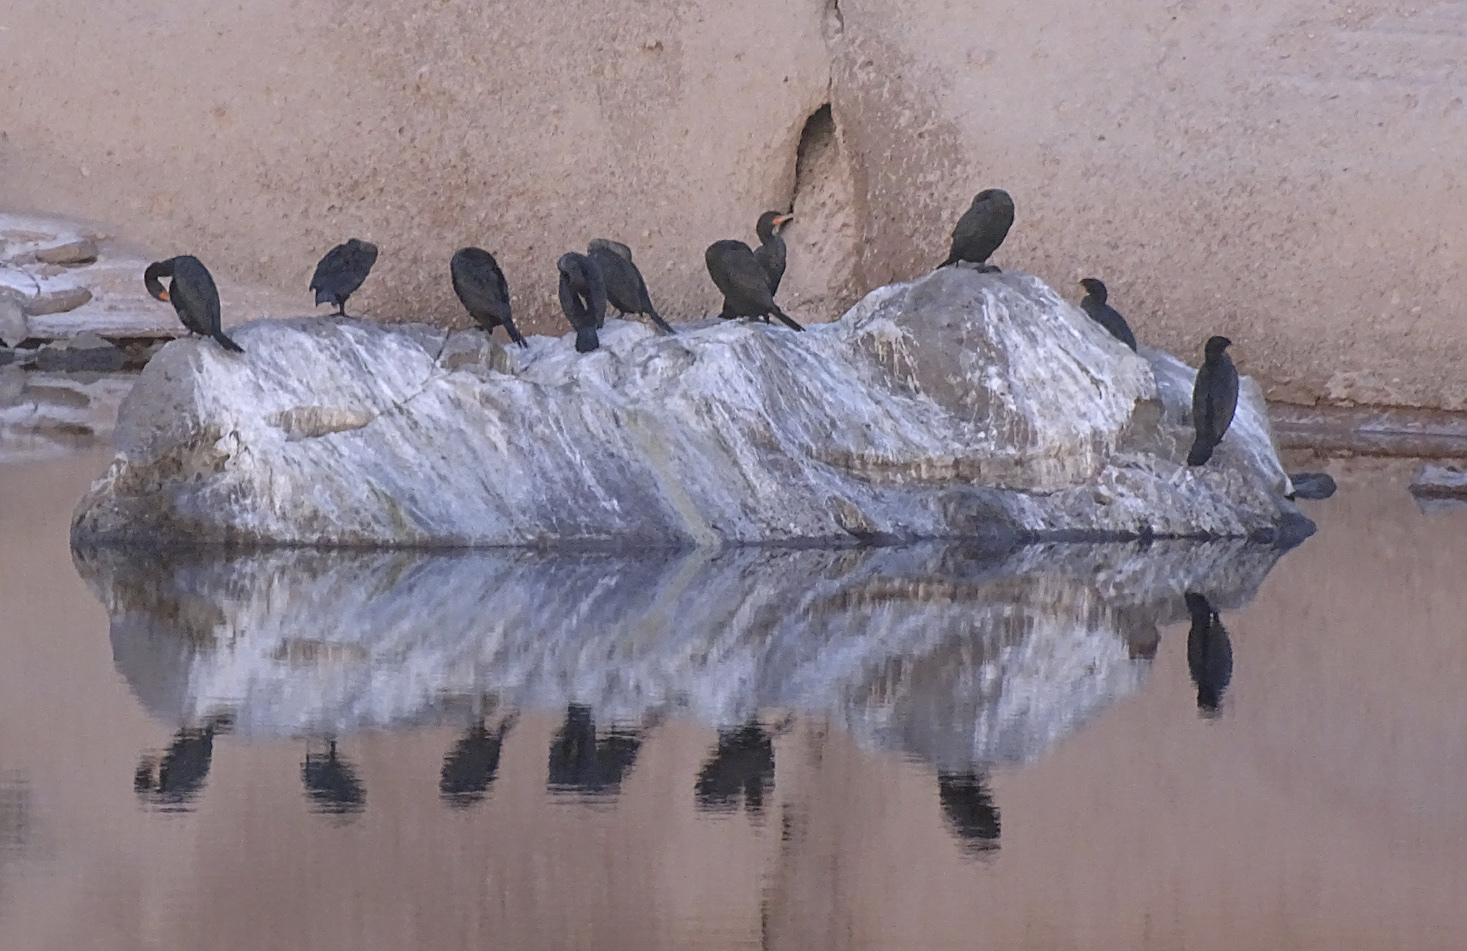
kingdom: Animalia
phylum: Chordata
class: Aves
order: Suliformes
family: Phalacrocoracidae
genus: Phalacrocorax
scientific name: Phalacrocorax auritus
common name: Double-crested cormorant
